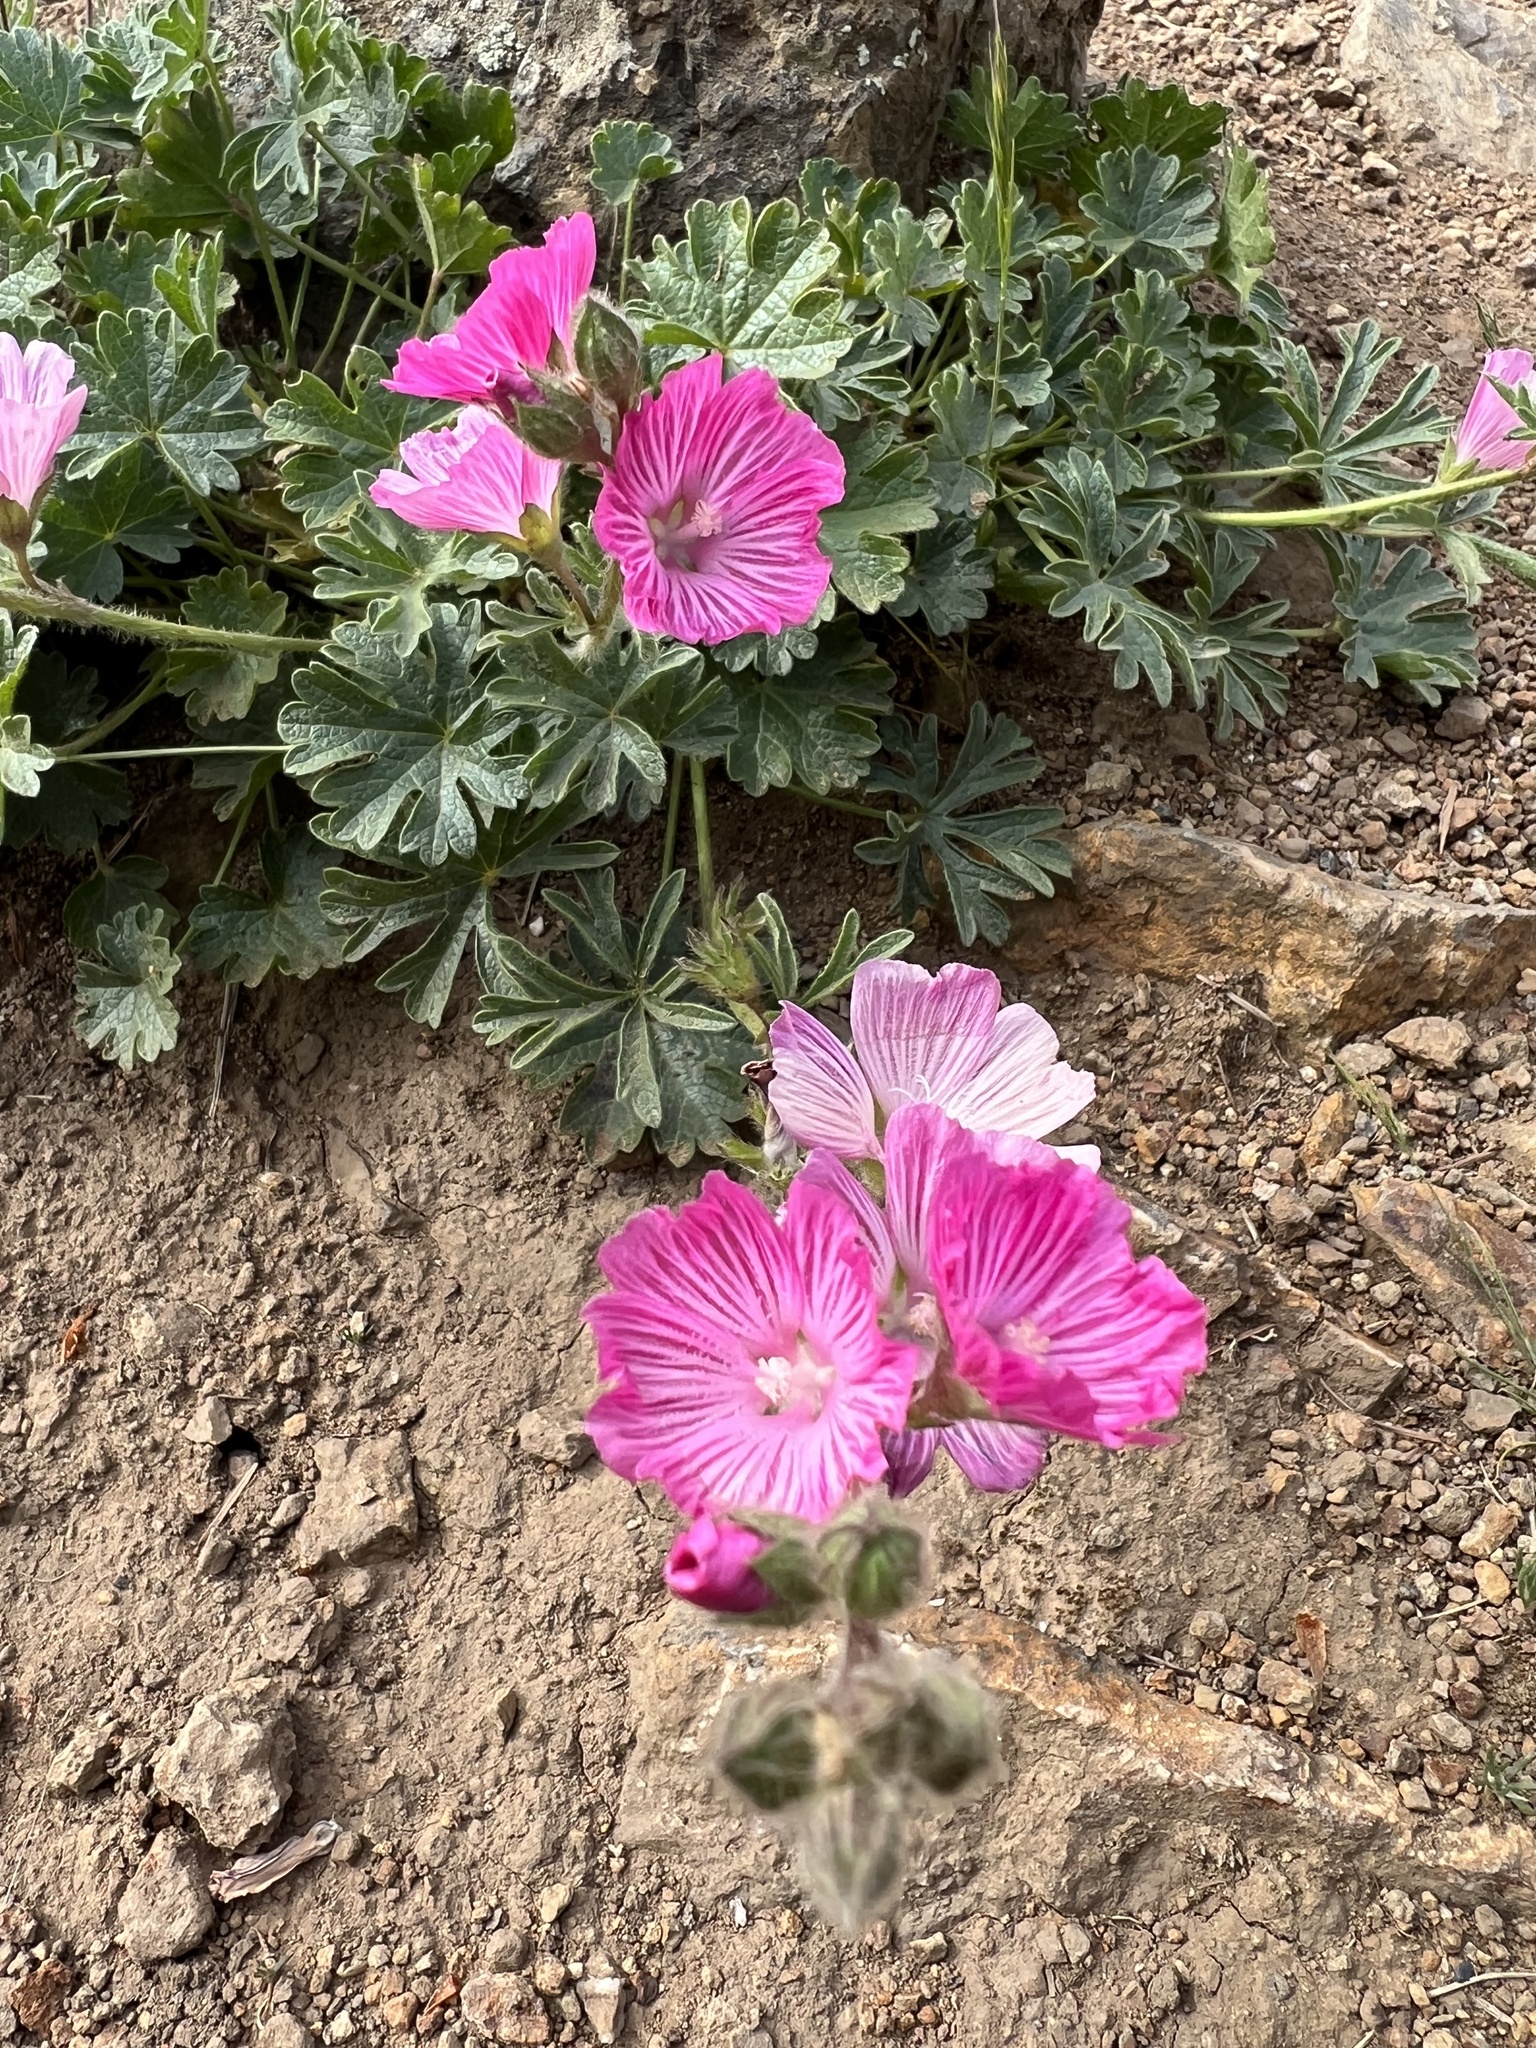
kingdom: Plantae
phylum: Tracheophyta
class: Magnoliopsida
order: Malvales
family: Malvaceae
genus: Sidalcea
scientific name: Sidalcea malviflora
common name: Greek mallow
